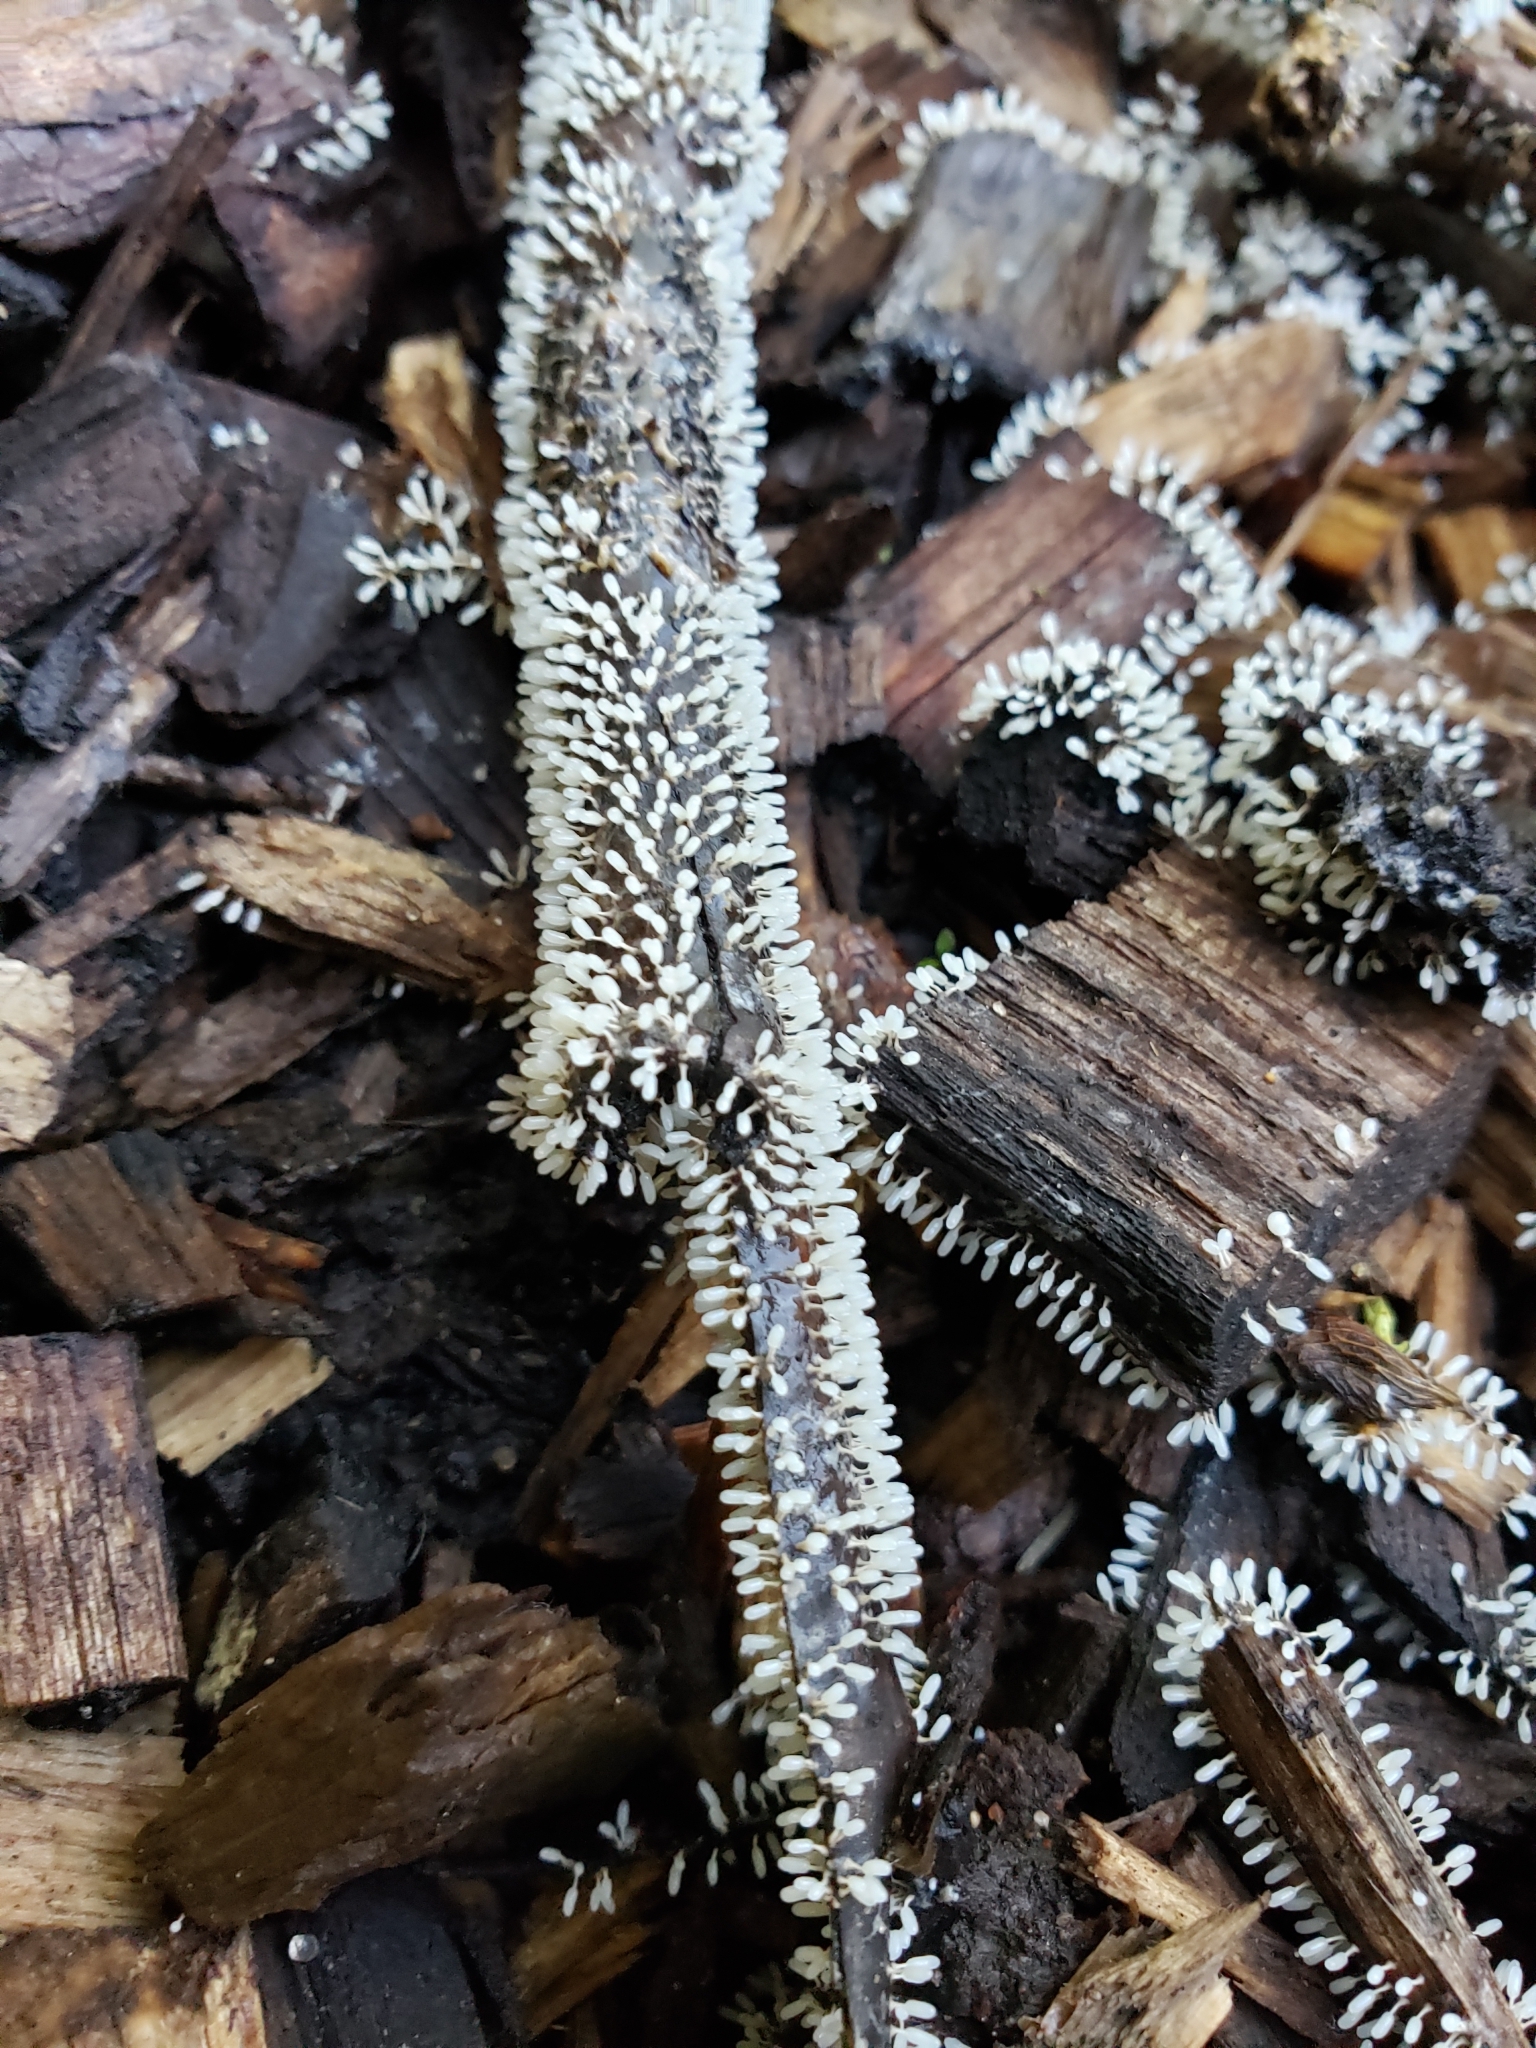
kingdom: Protozoa
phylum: Mycetozoa
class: Myxomycetes
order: Physarales
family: Didymiaceae
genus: Diachea
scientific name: Diachea leucopodia
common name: White-footed slime
